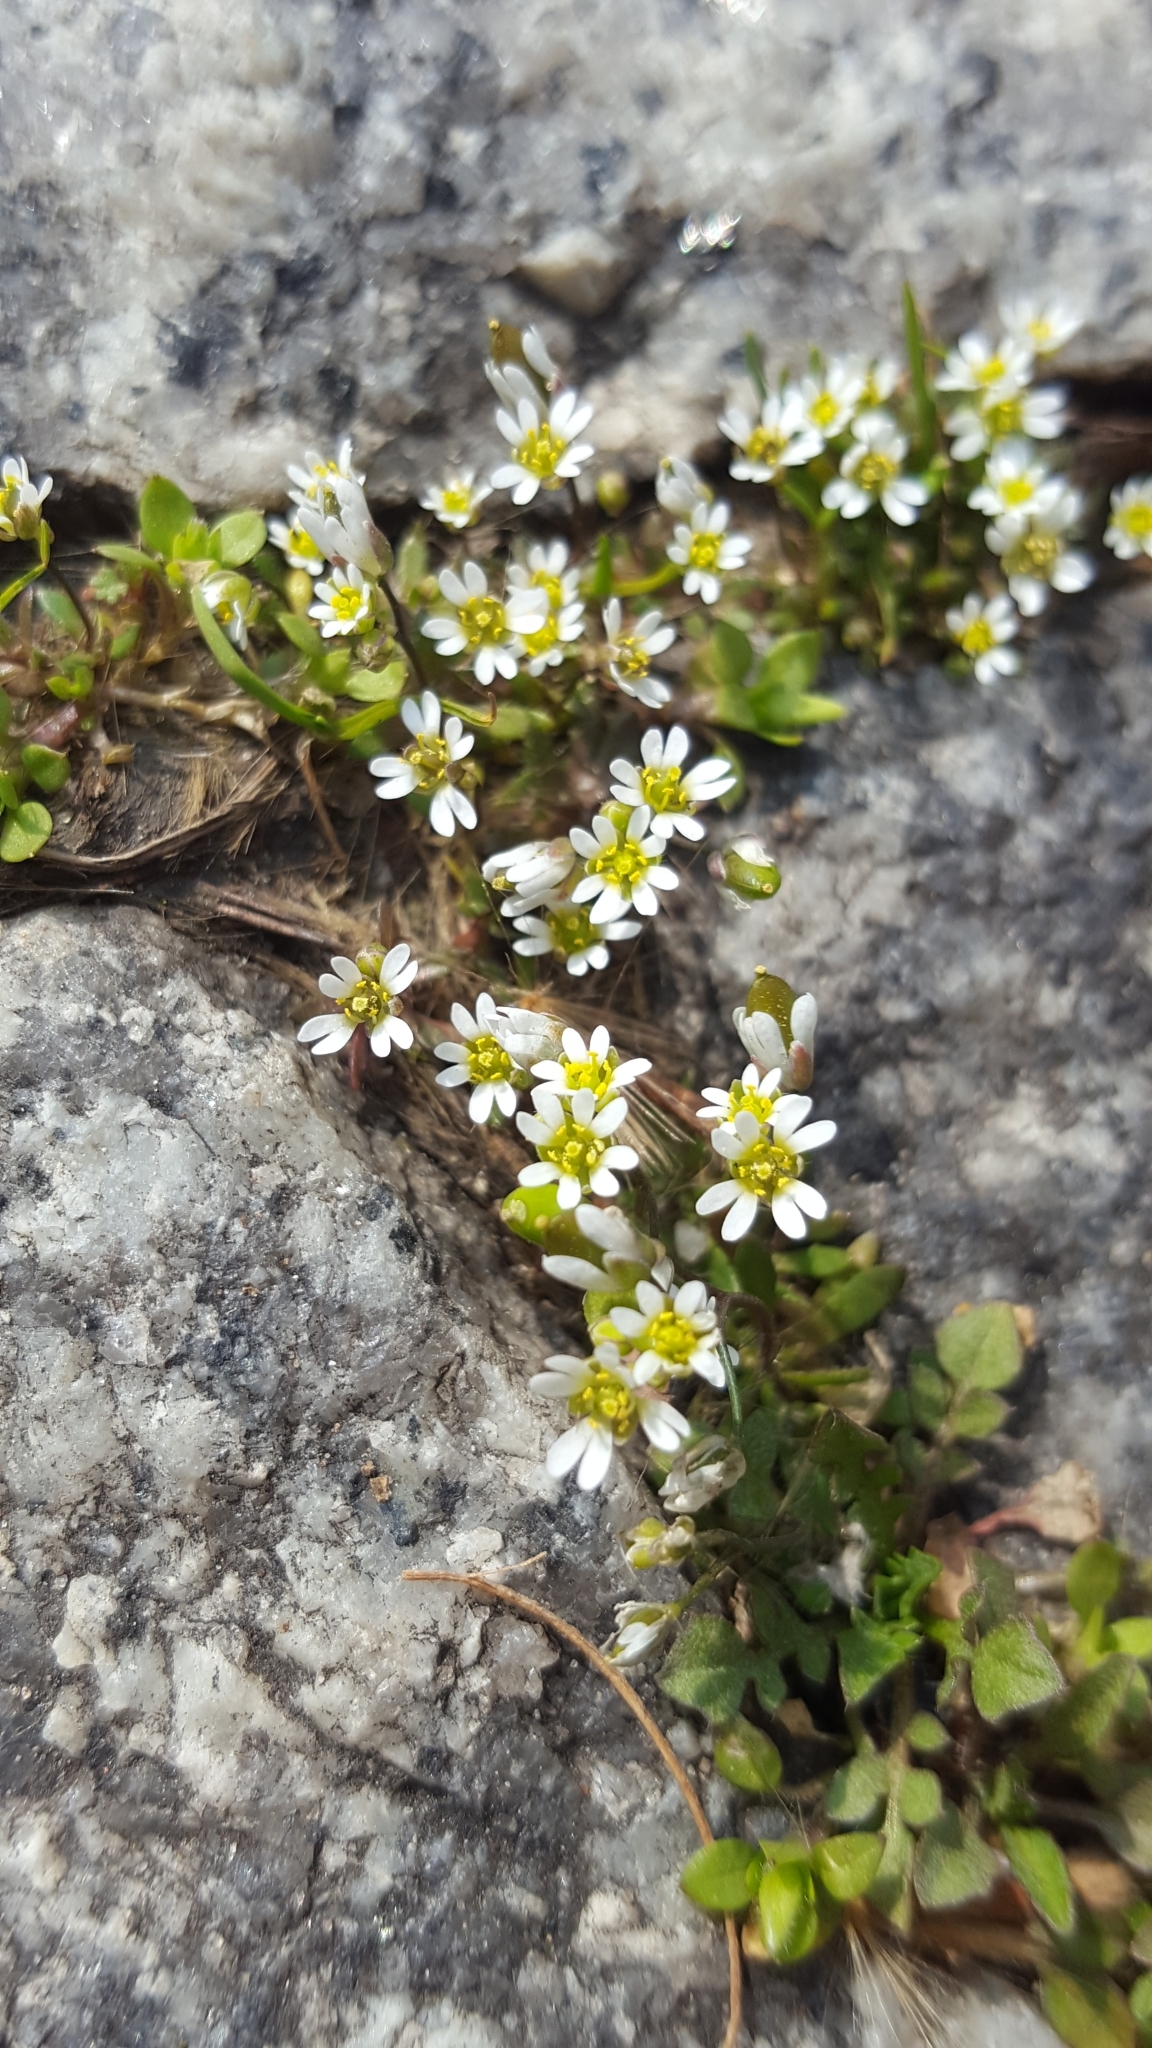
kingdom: Plantae
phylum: Tracheophyta
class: Magnoliopsida
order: Brassicales
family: Brassicaceae
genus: Draba
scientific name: Draba verna
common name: Spring draba
